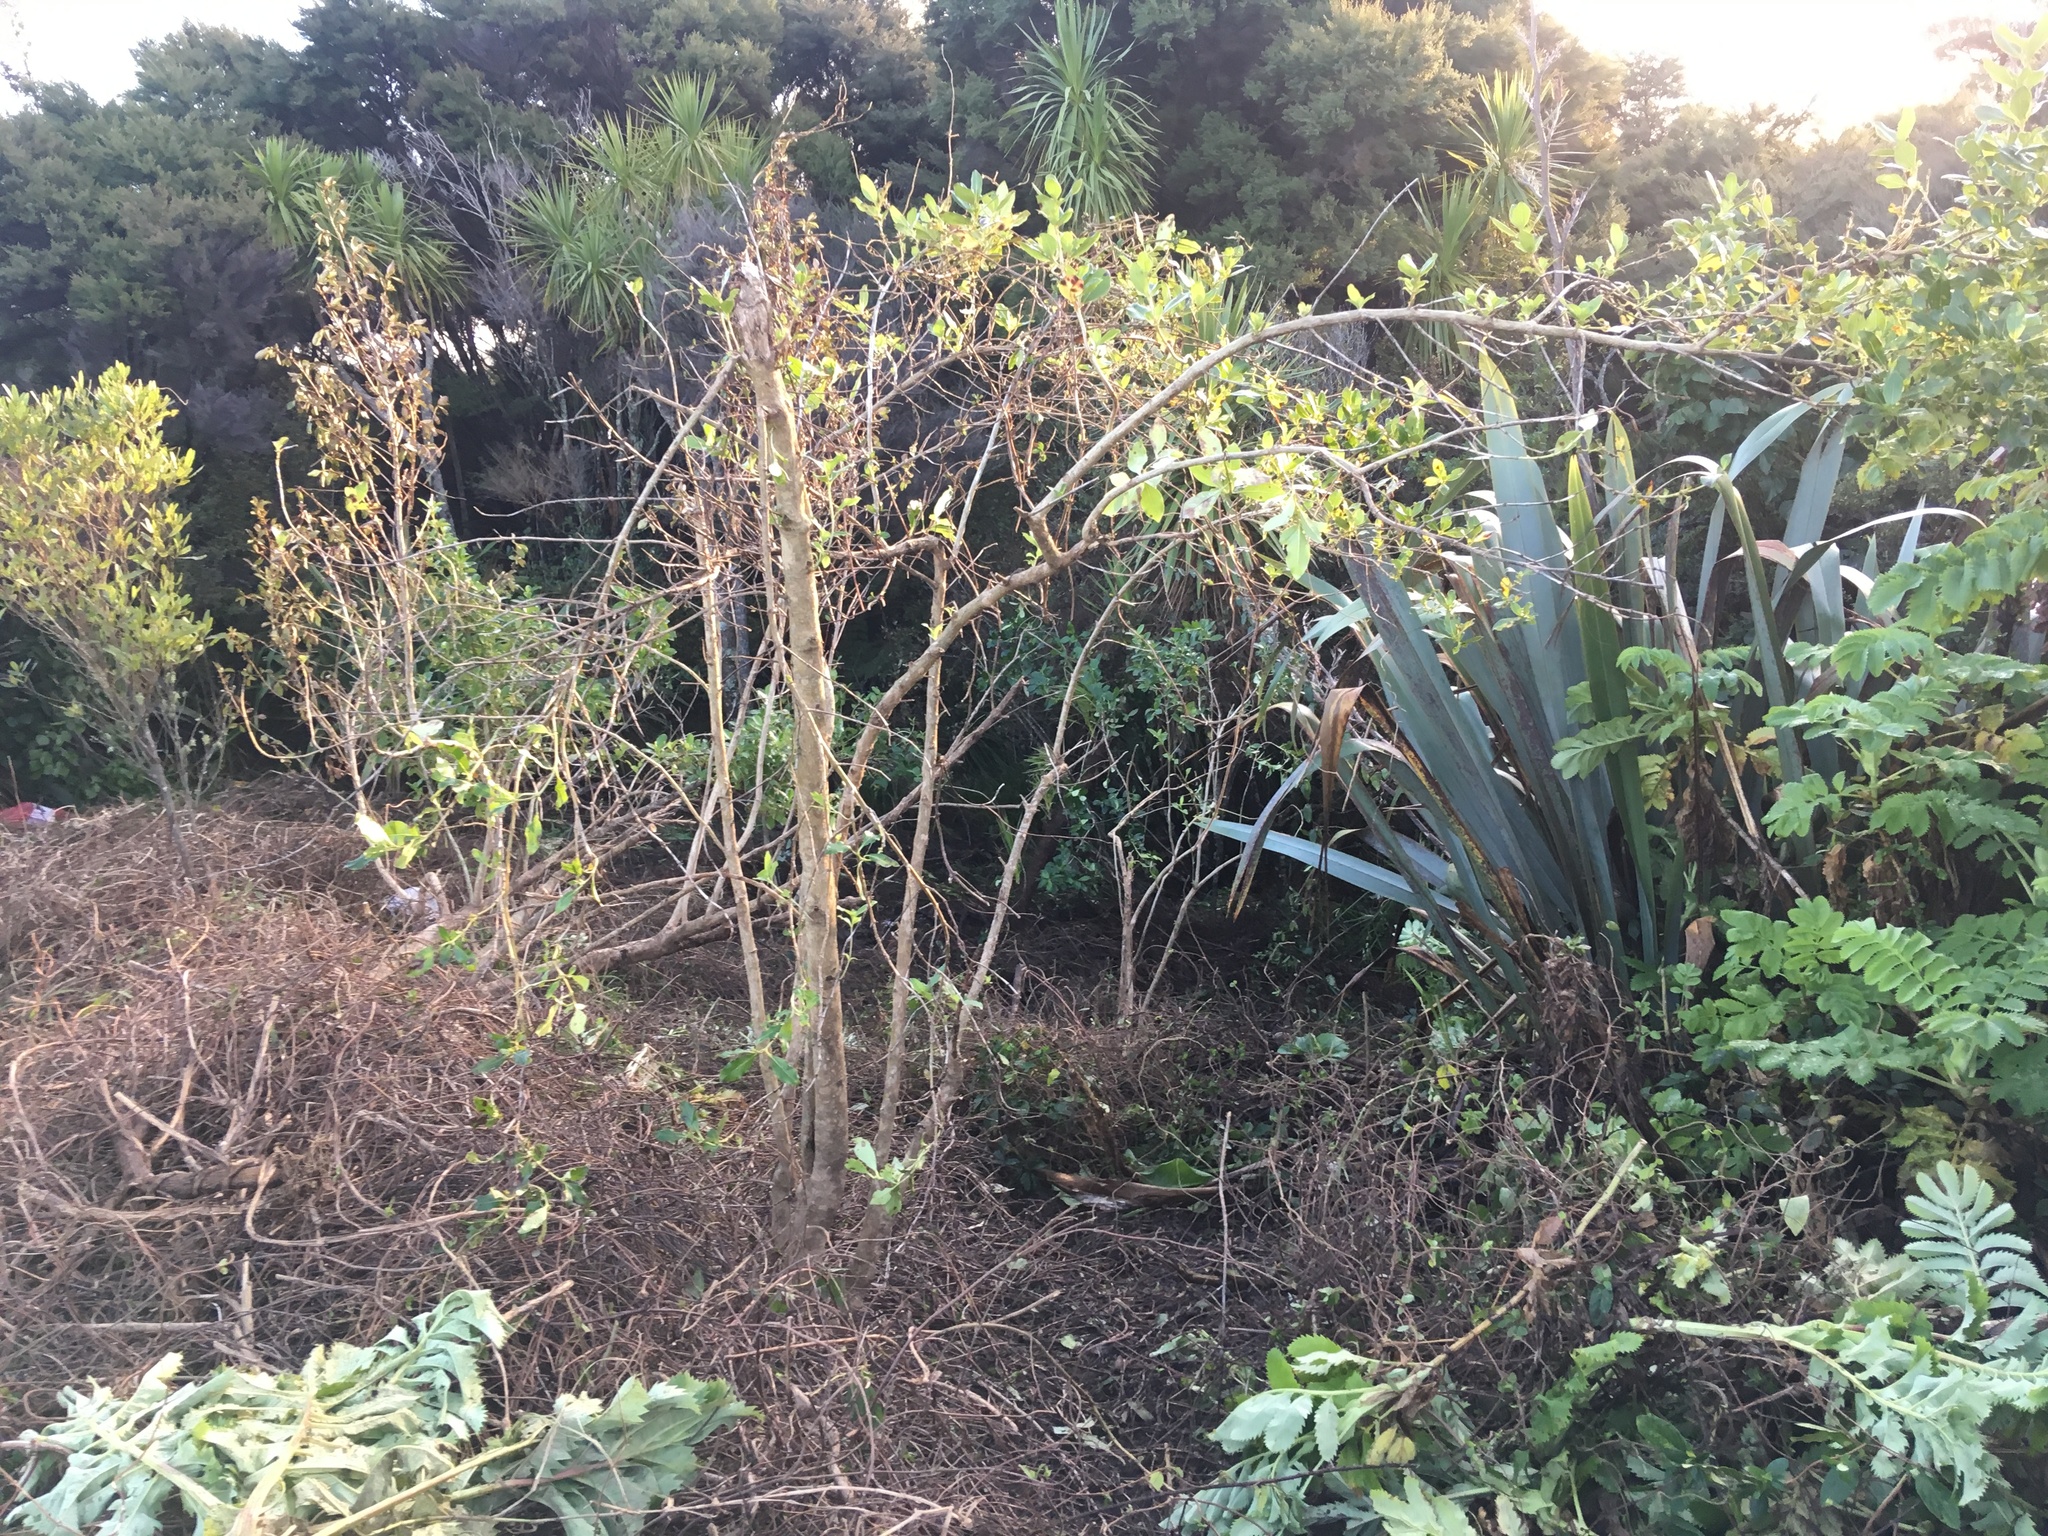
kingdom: Plantae
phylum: Tracheophyta
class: Magnoliopsida
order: Gentianales
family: Rubiaceae
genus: Coprosma
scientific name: Coprosma robusta
